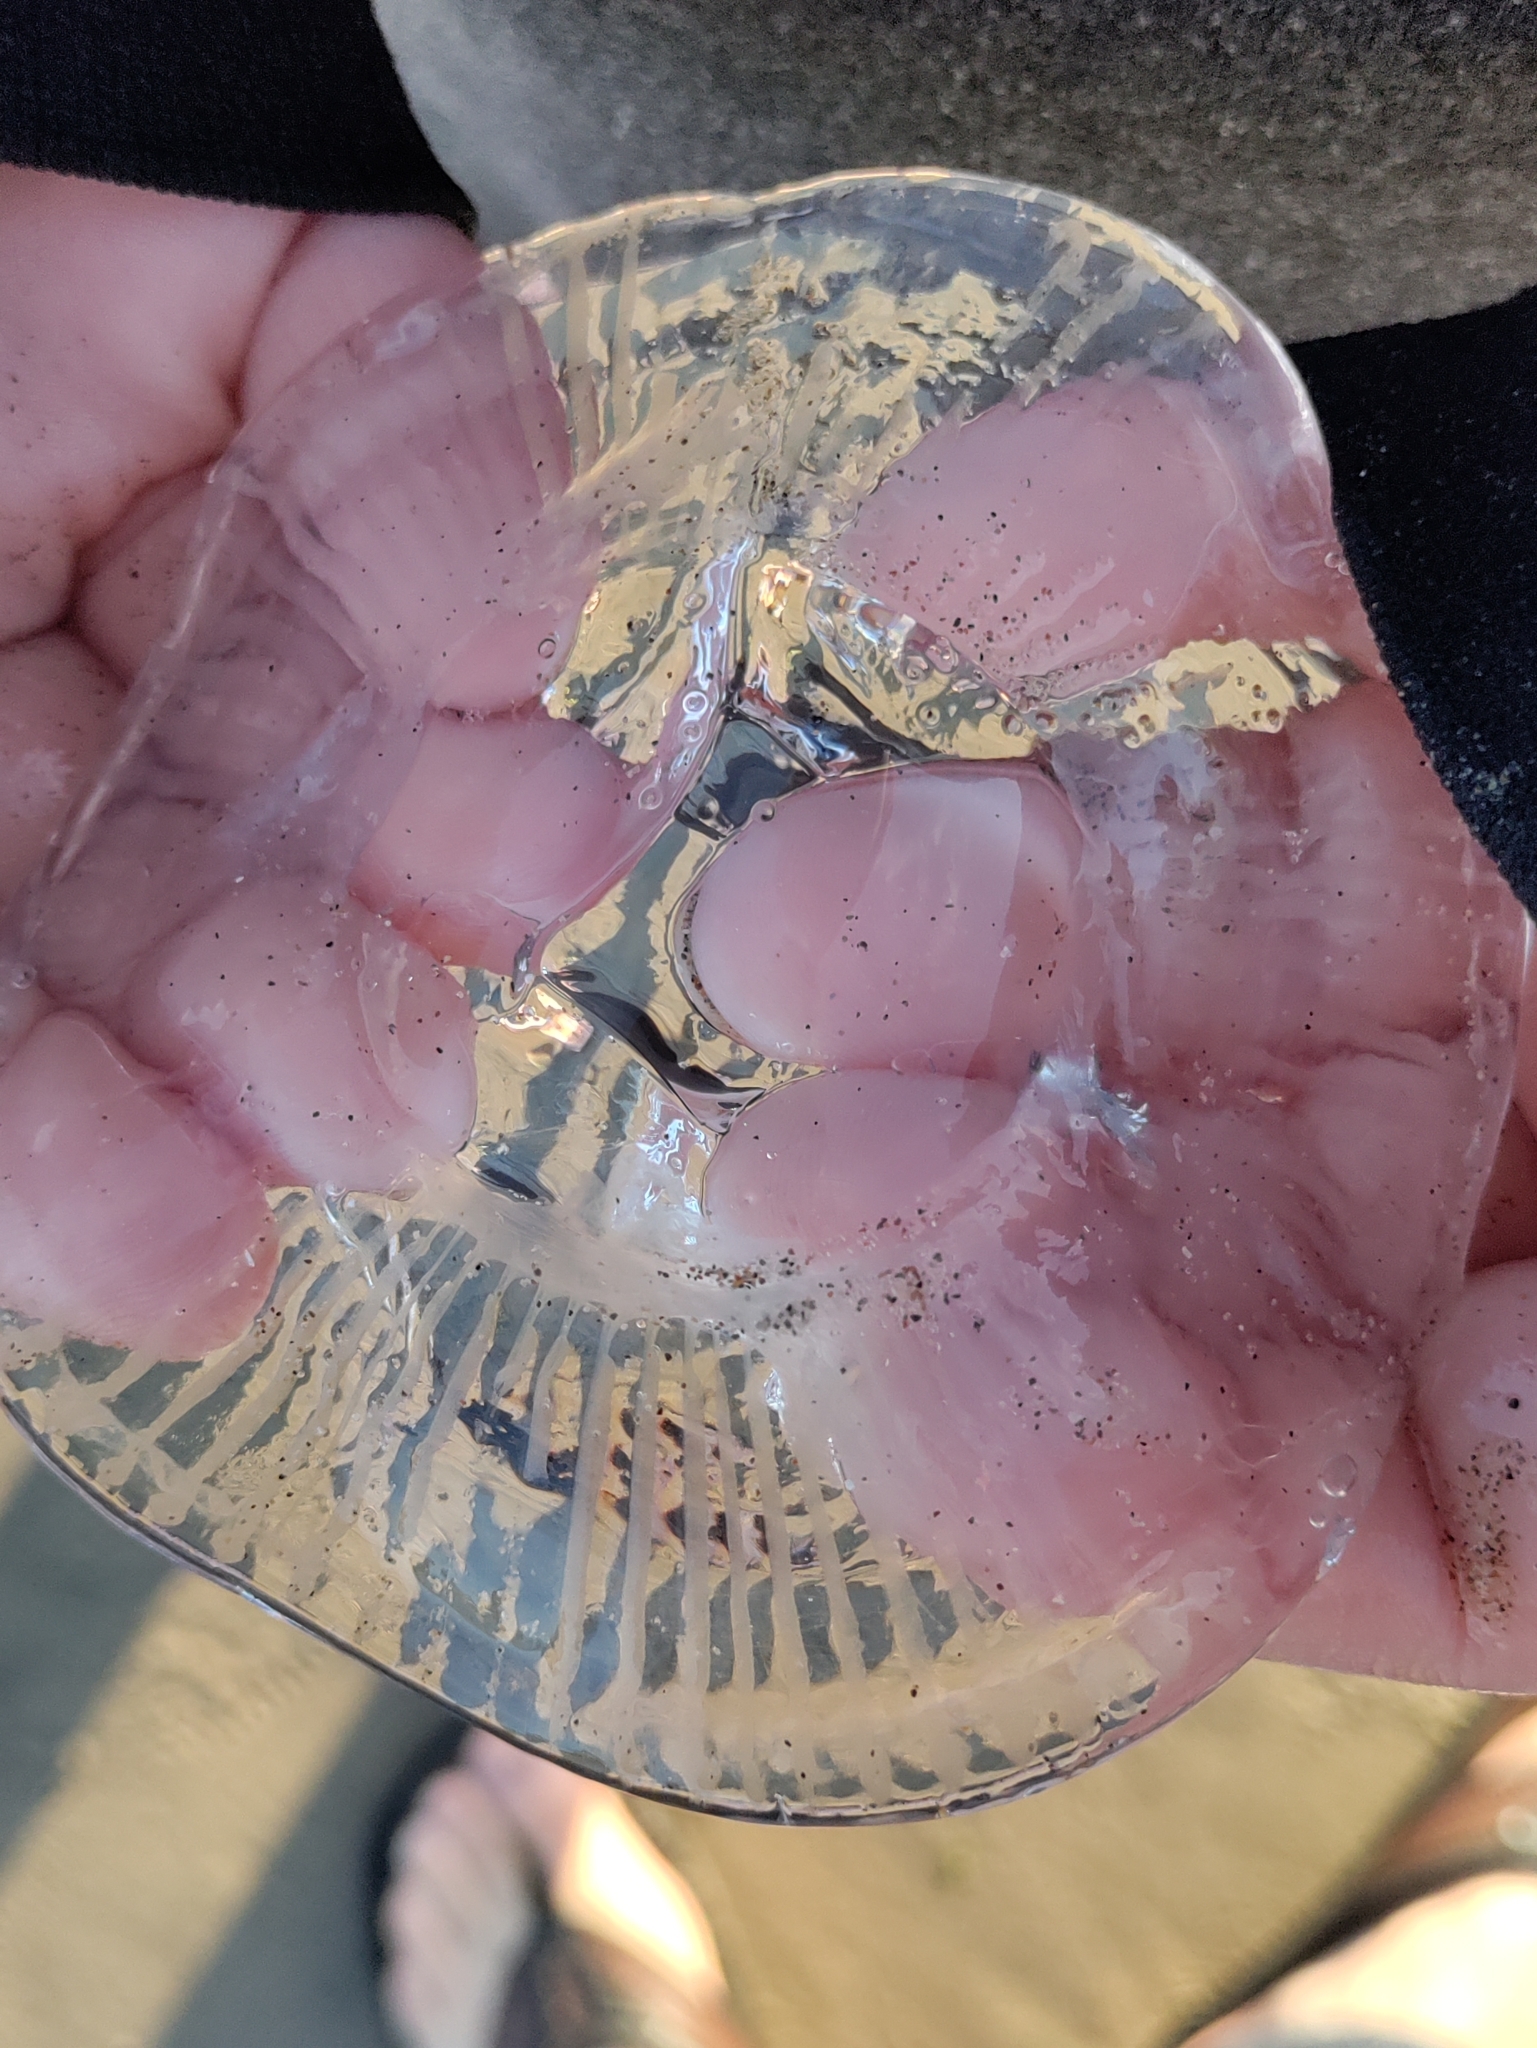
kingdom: Animalia
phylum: Cnidaria
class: Hydrozoa
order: Leptothecata
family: Aequoreidae
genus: Aequorea
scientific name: Aequorea victoria
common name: Water jellyfish
